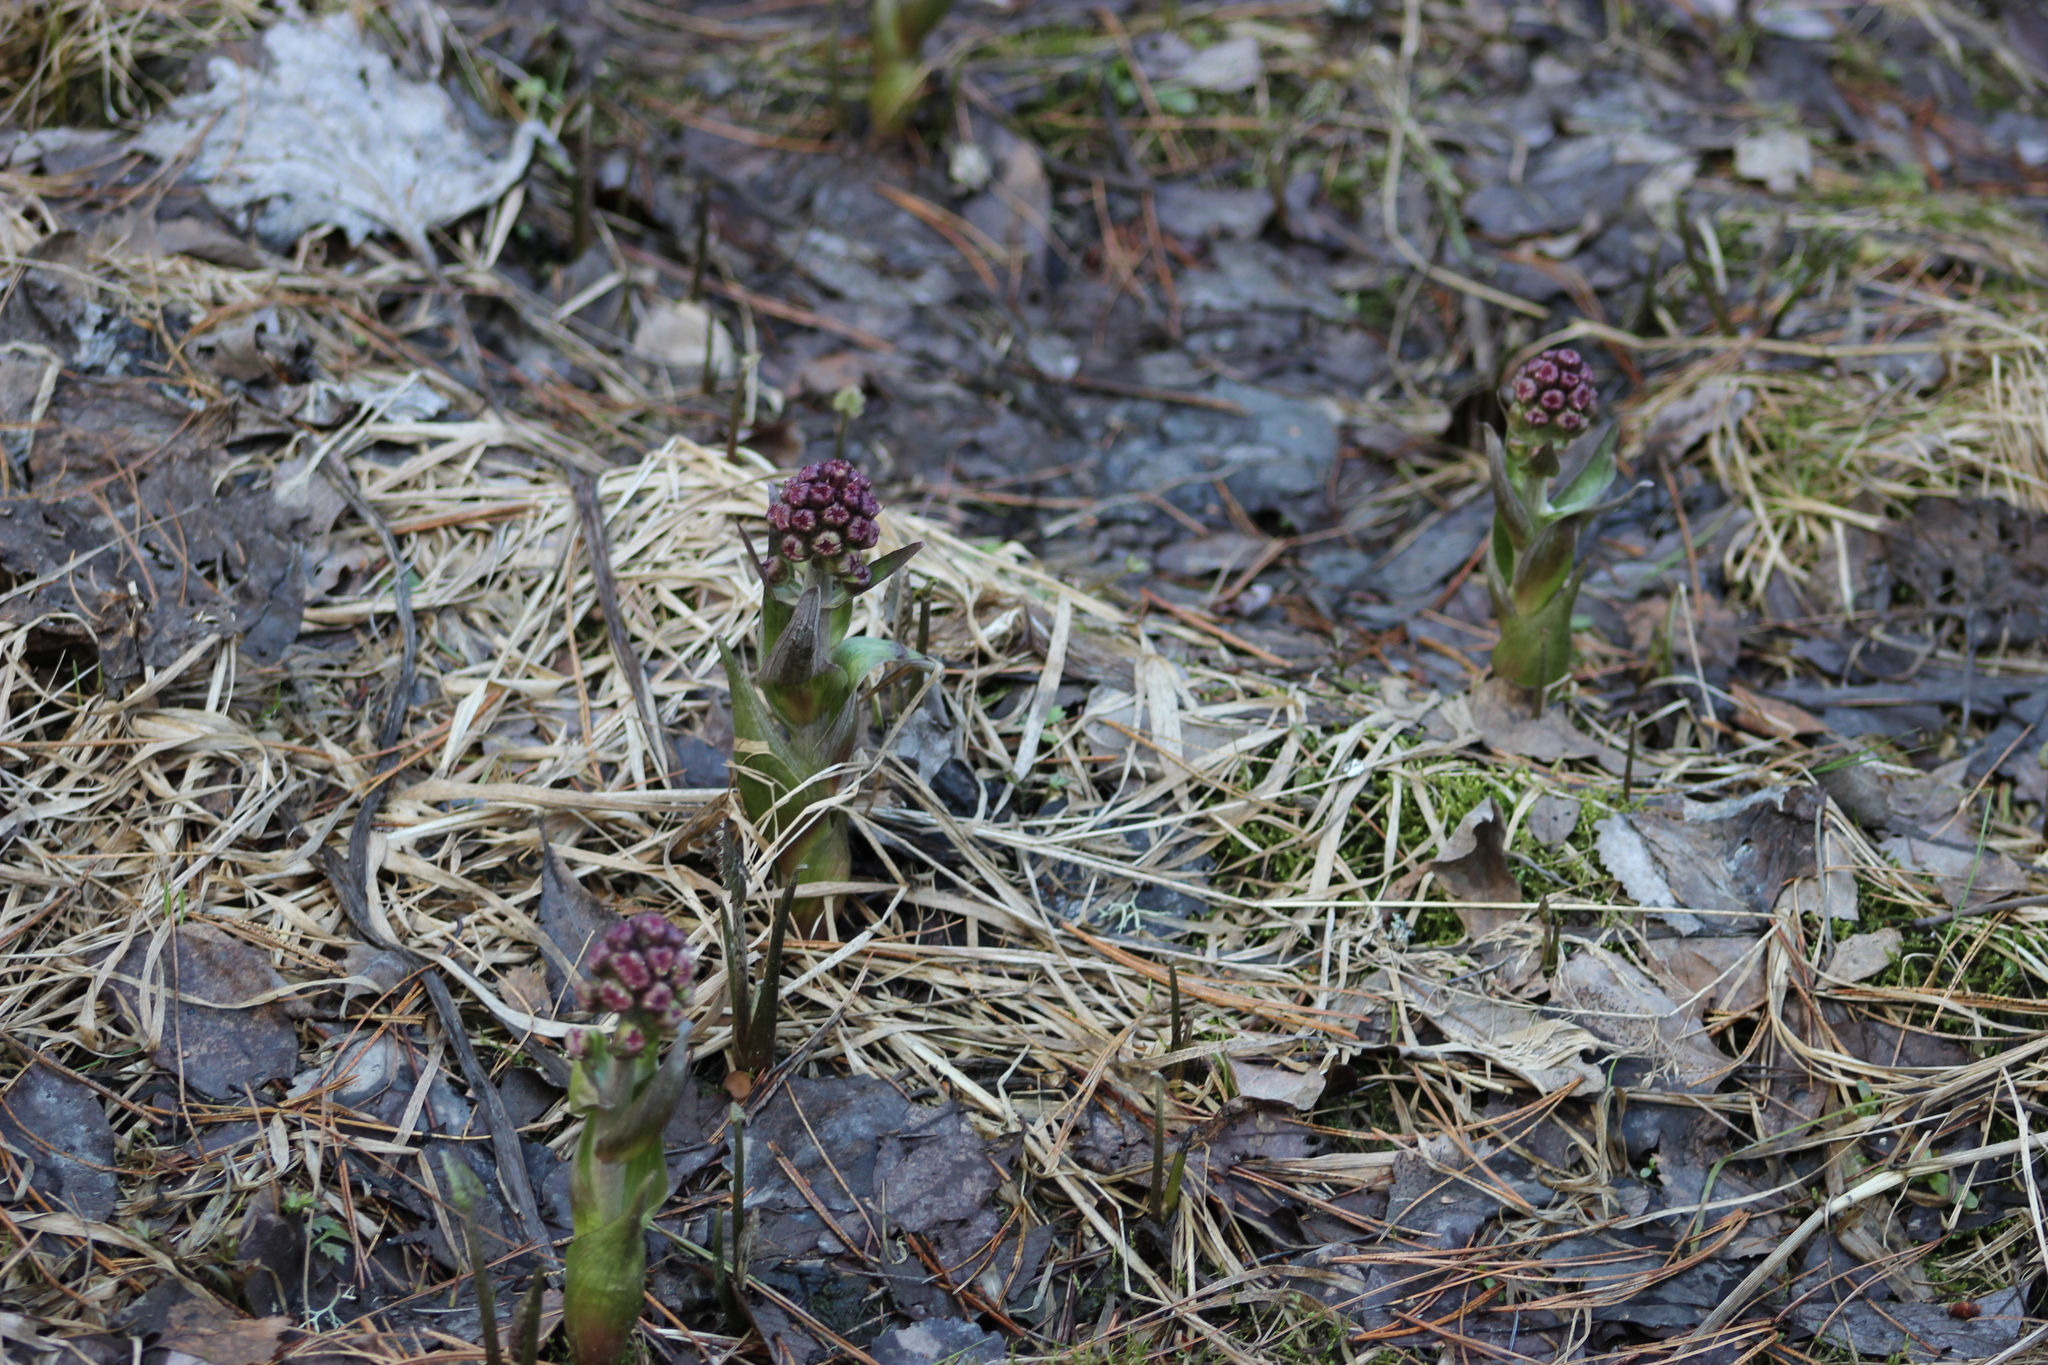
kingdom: Plantae
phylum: Tracheophyta
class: Magnoliopsida
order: Asterales
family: Asteraceae
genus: Petasites
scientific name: Petasites frigidus
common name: Arctic butterbur
